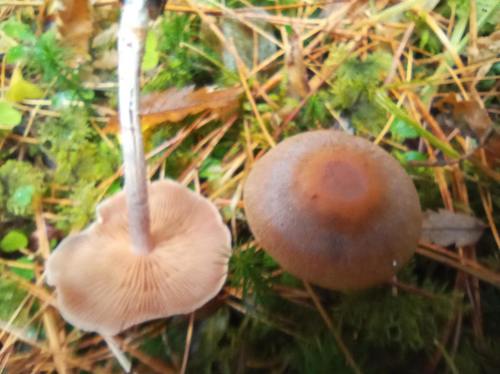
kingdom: Fungi
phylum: Basidiomycota
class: Agaricomycetes
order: Agaricales
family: Cortinariaceae
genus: Cortinarius
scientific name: Cortinarius
